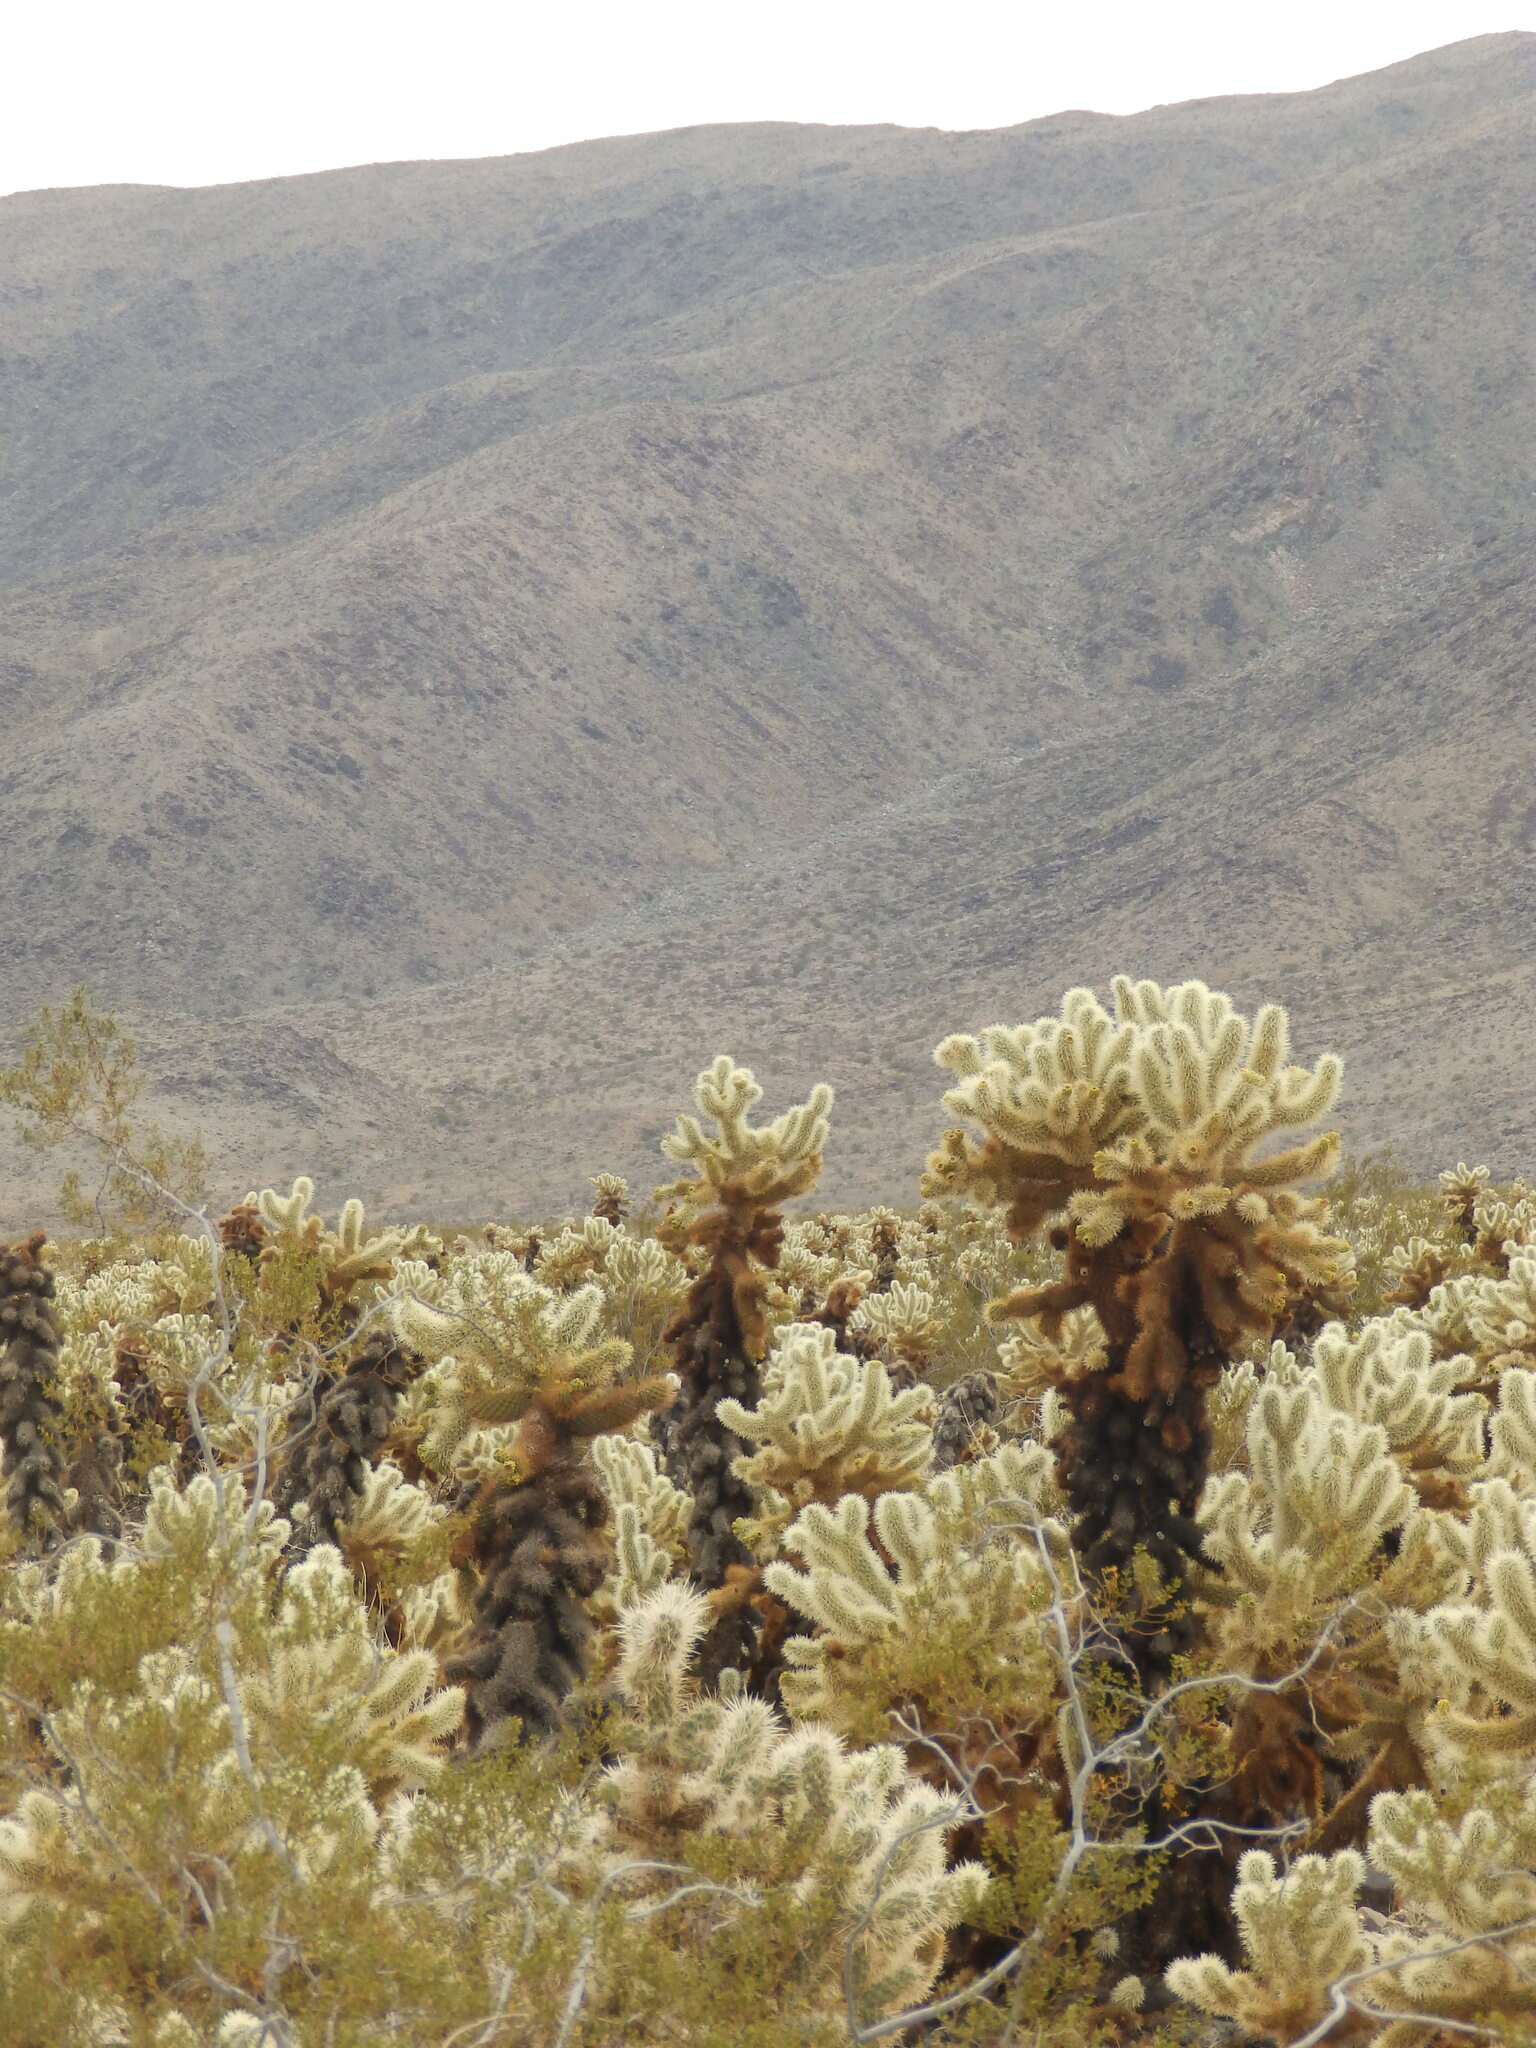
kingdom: Plantae
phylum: Tracheophyta
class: Magnoliopsida
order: Caryophyllales
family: Cactaceae
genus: Cylindropuntia
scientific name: Cylindropuntia fosbergii
